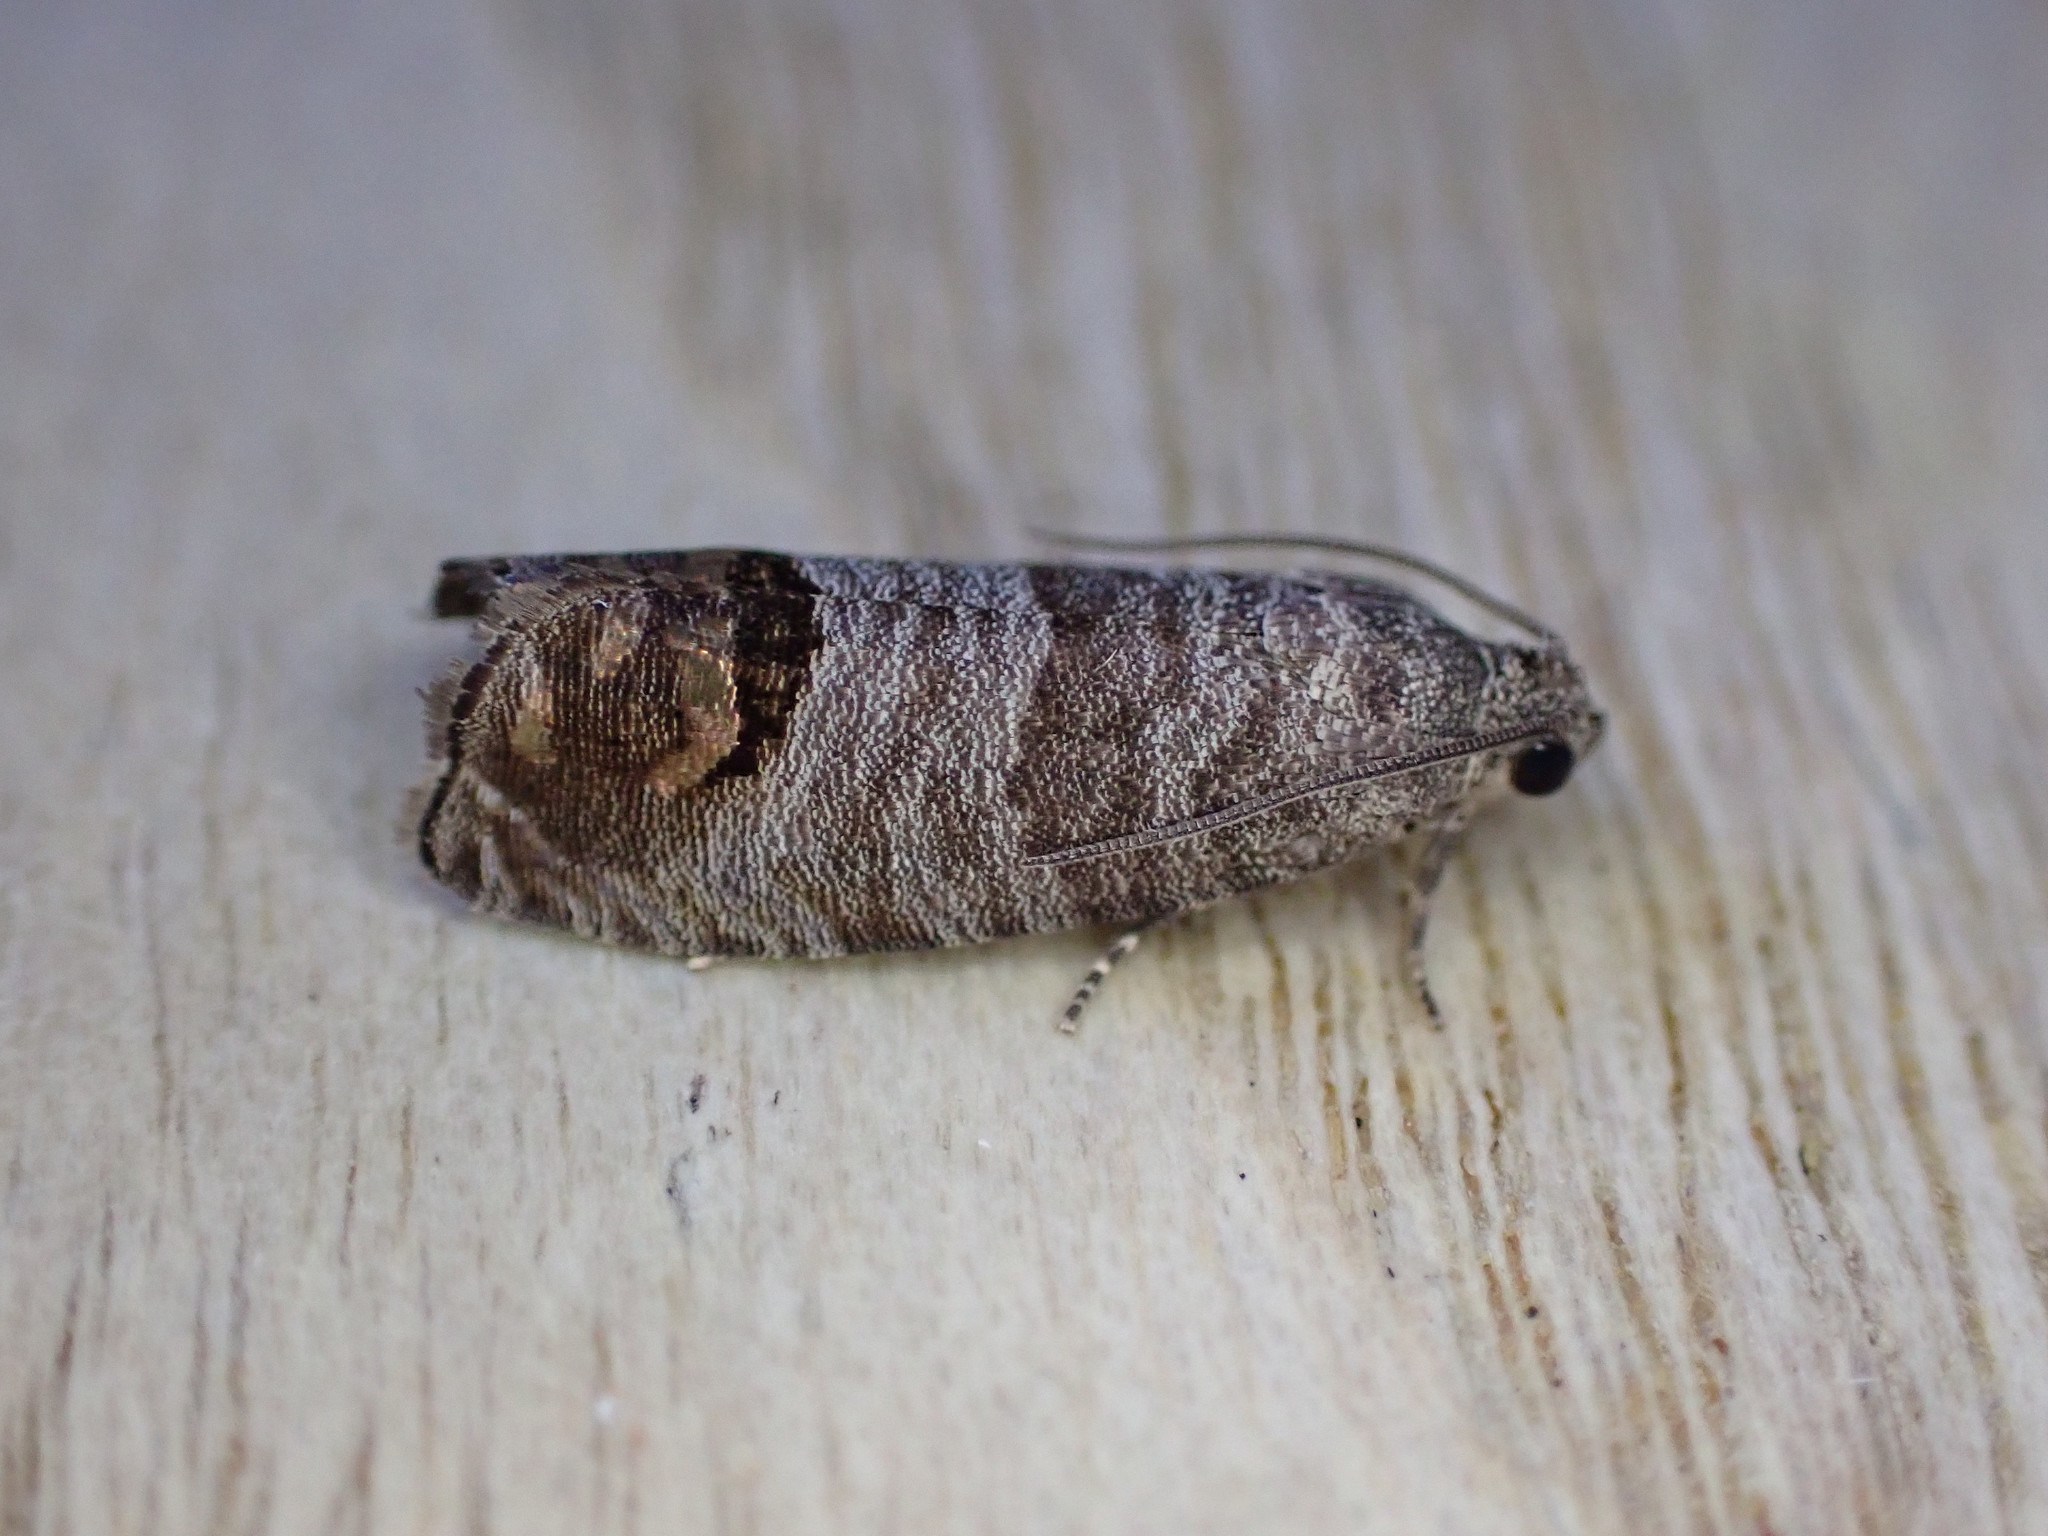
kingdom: Animalia
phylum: Arthropoda
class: Insecta
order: Lepidoptera
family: Tortricidae
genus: Cydia
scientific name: Cydia pomonella
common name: Codling moth
